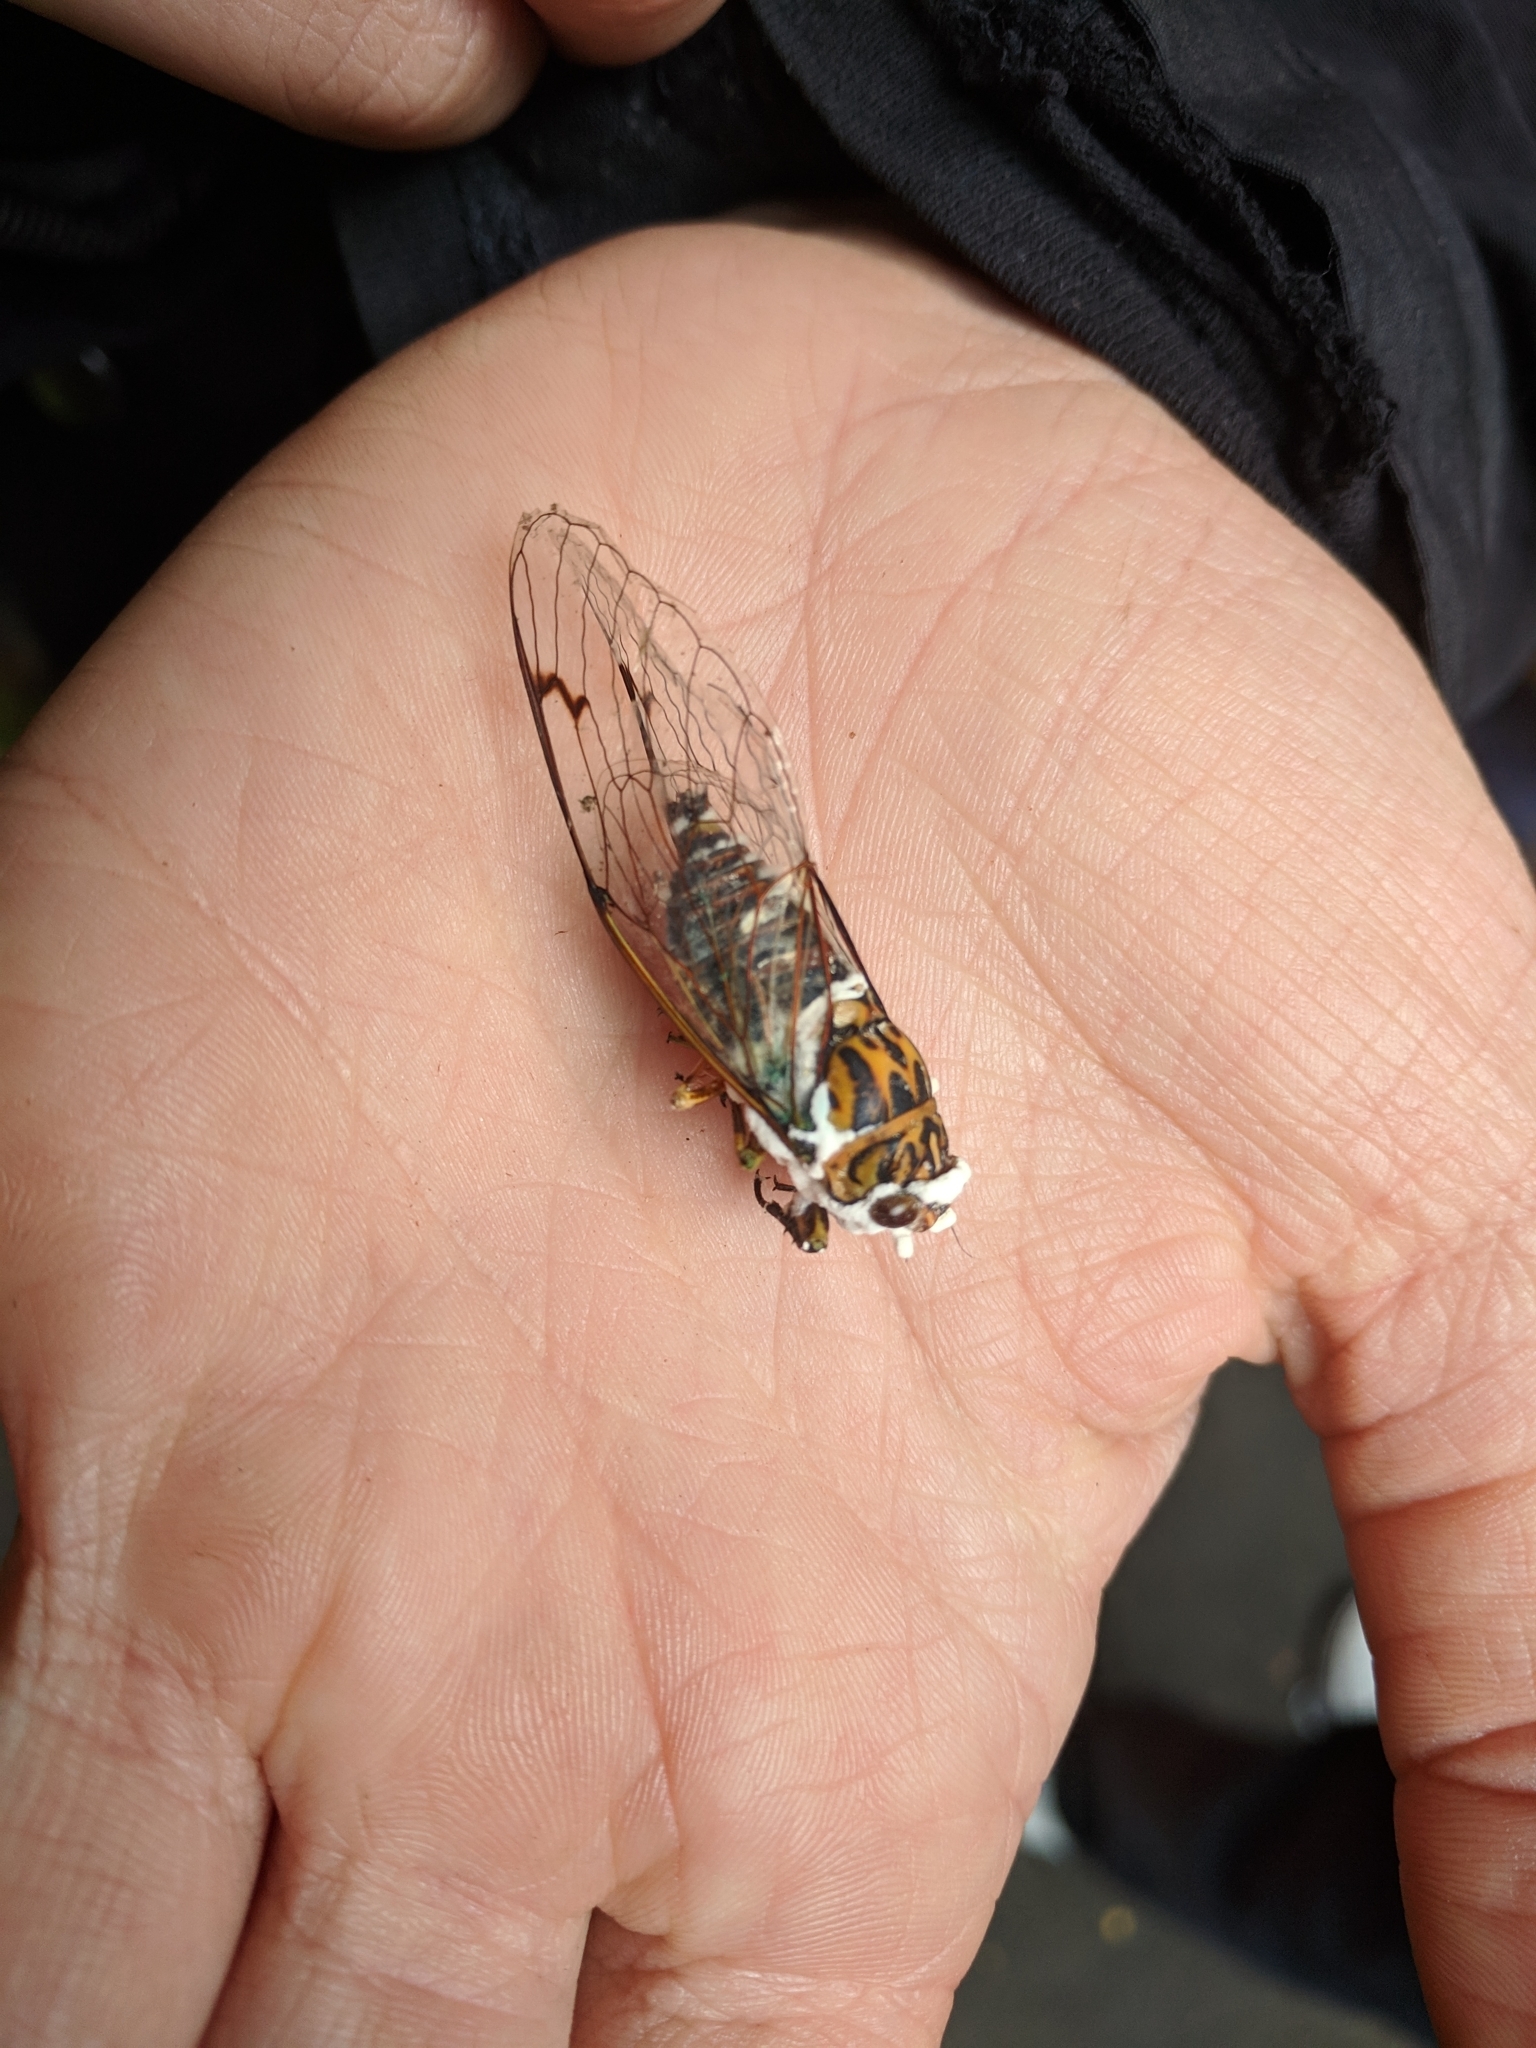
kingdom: Animalia
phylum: Arthropoda
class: Insecta
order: Hemiptera
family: Cicadidae
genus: Amphipsalta
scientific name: Amphipsalta zelandica
